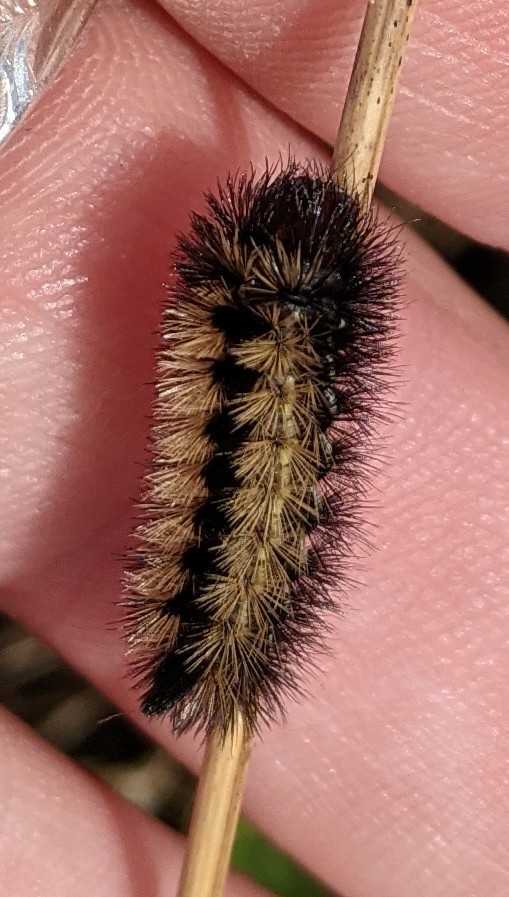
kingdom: Animalia
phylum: Arthropoda
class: Insecta
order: Lepidoptera
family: Erebidae
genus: Ctenucha
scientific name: Ctenucha virginica
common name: Virginia ctenucha moth
